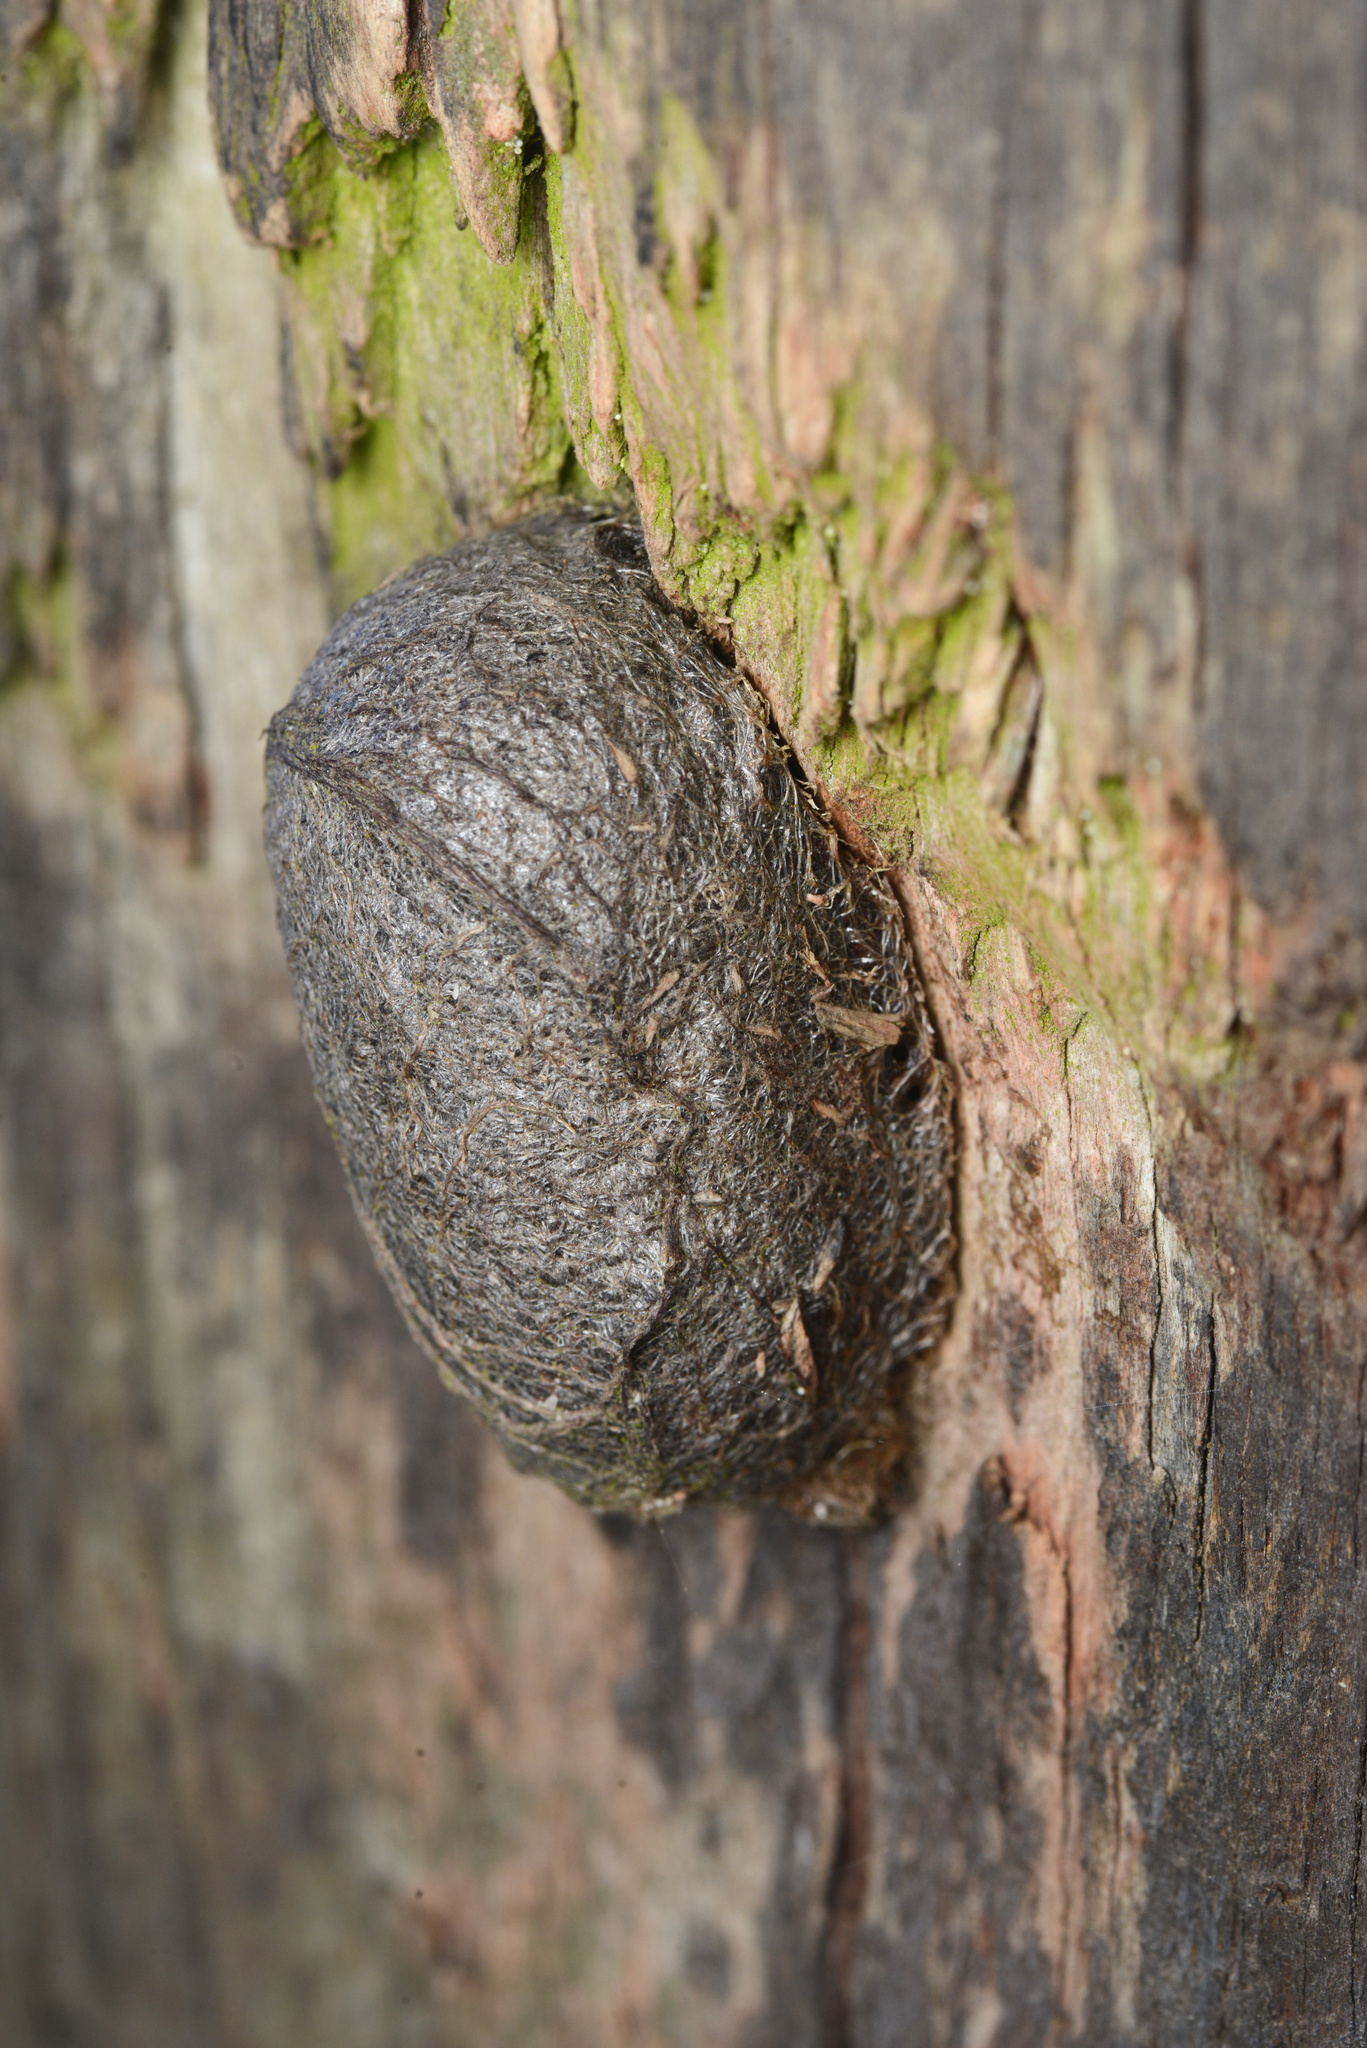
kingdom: Animalia
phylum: Arthropoda
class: Insecta
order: Lepidoptera
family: Saturniidae
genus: Opodiphthera
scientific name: Opodiphthera
